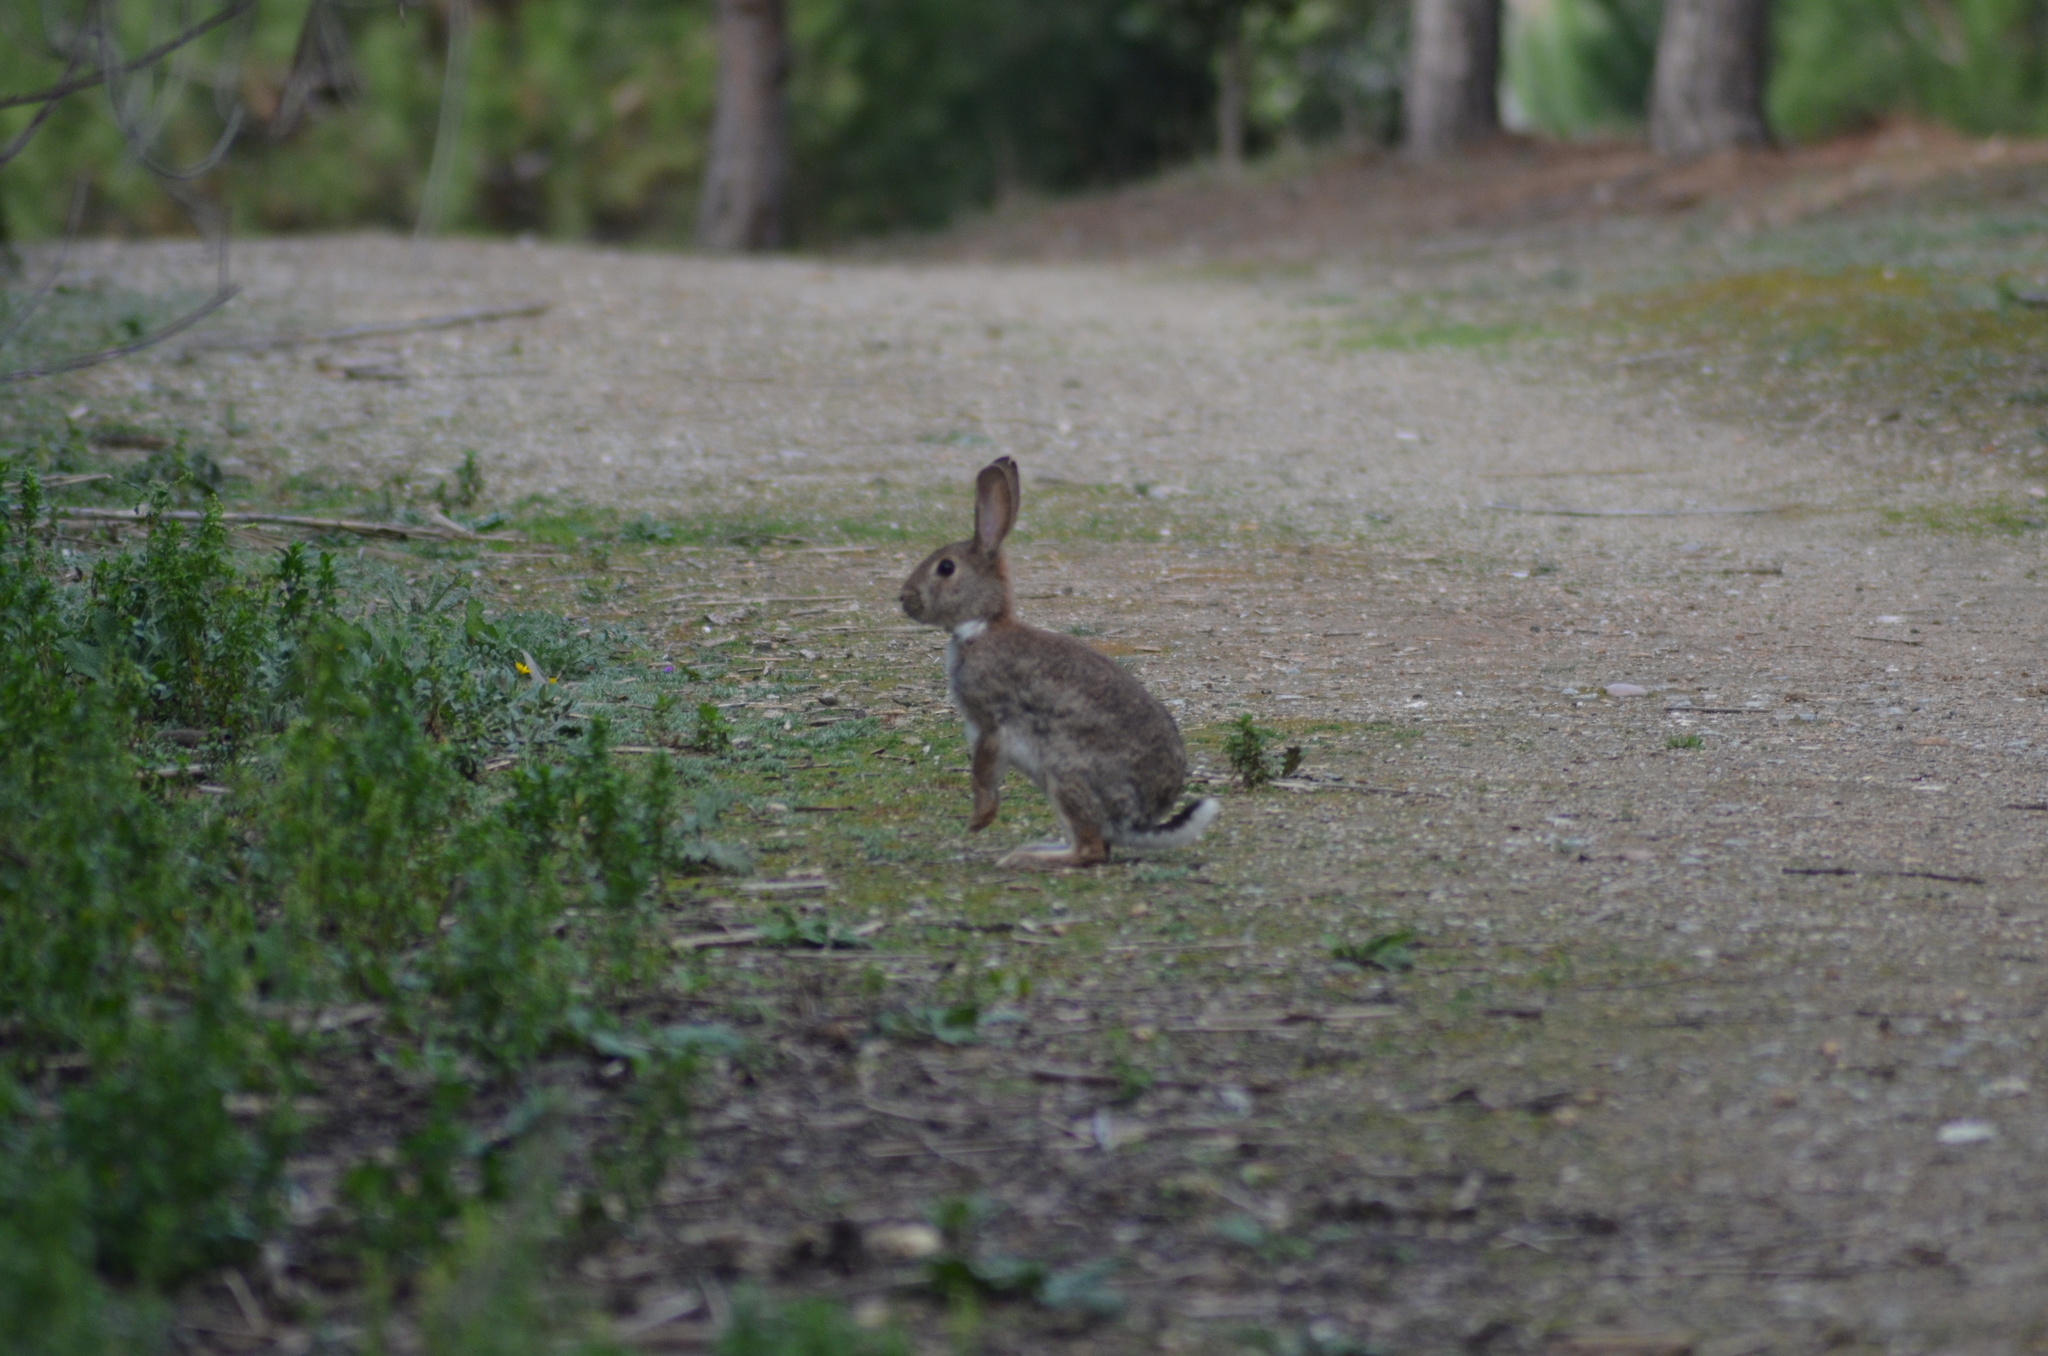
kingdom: Animalia
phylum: Chordata
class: Mammalia
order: Lagomorpha
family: Leporidae
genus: Oryctolagus
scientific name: Oryctolagus cuniculus
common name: European rabbit
